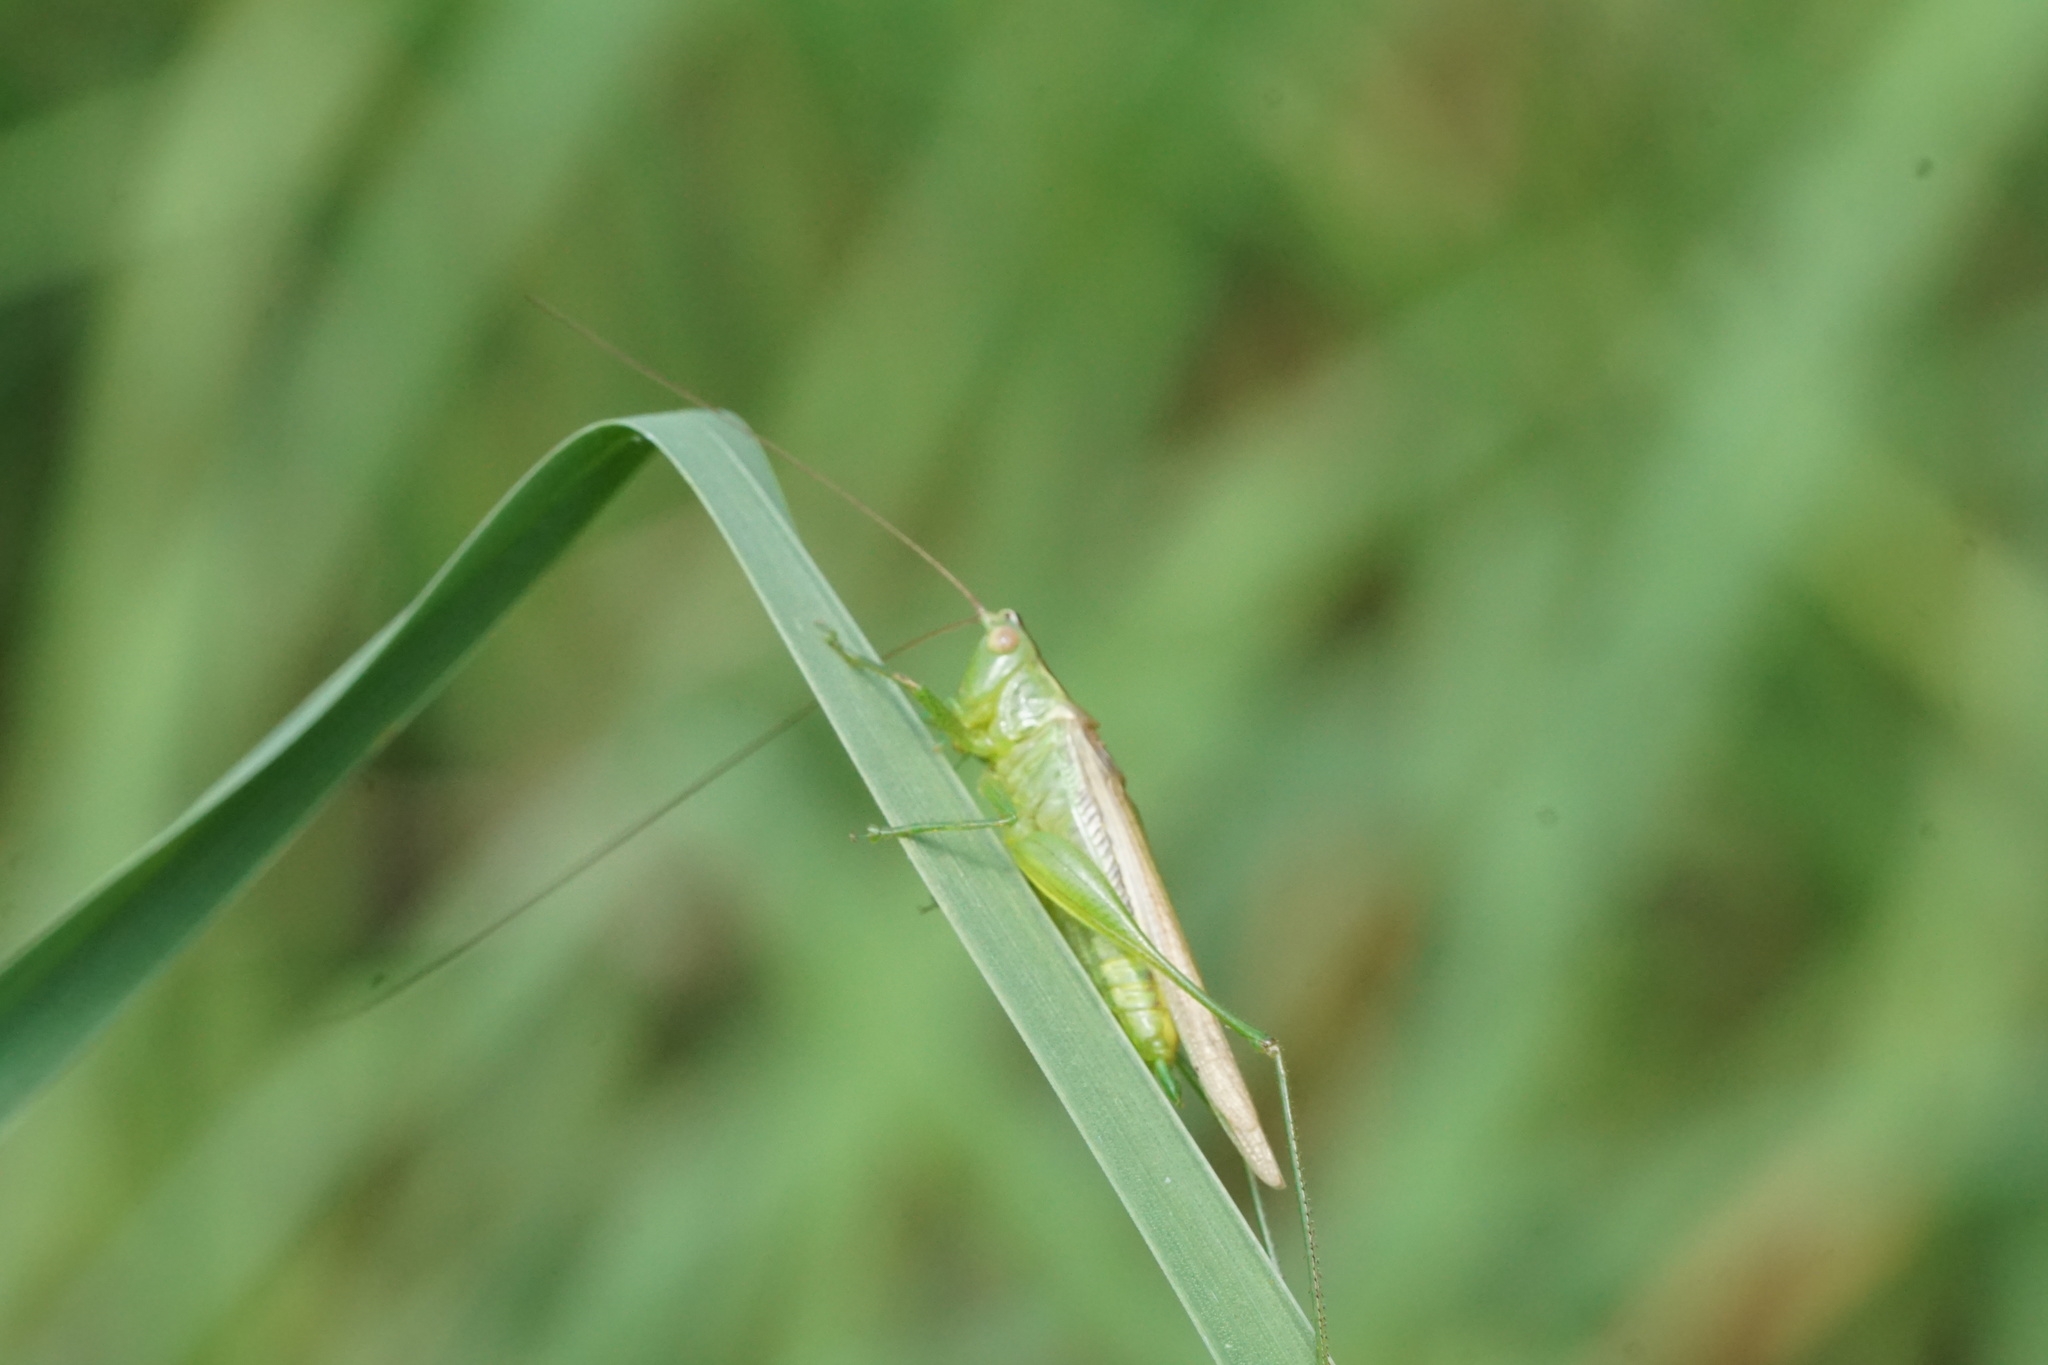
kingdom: Animalia
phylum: Arthropoda
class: Insecta
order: Orthoptera
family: Tettigoniidae
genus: Conocephalus
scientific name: Conocephalus fasciatus
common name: Slender meadow katydid
